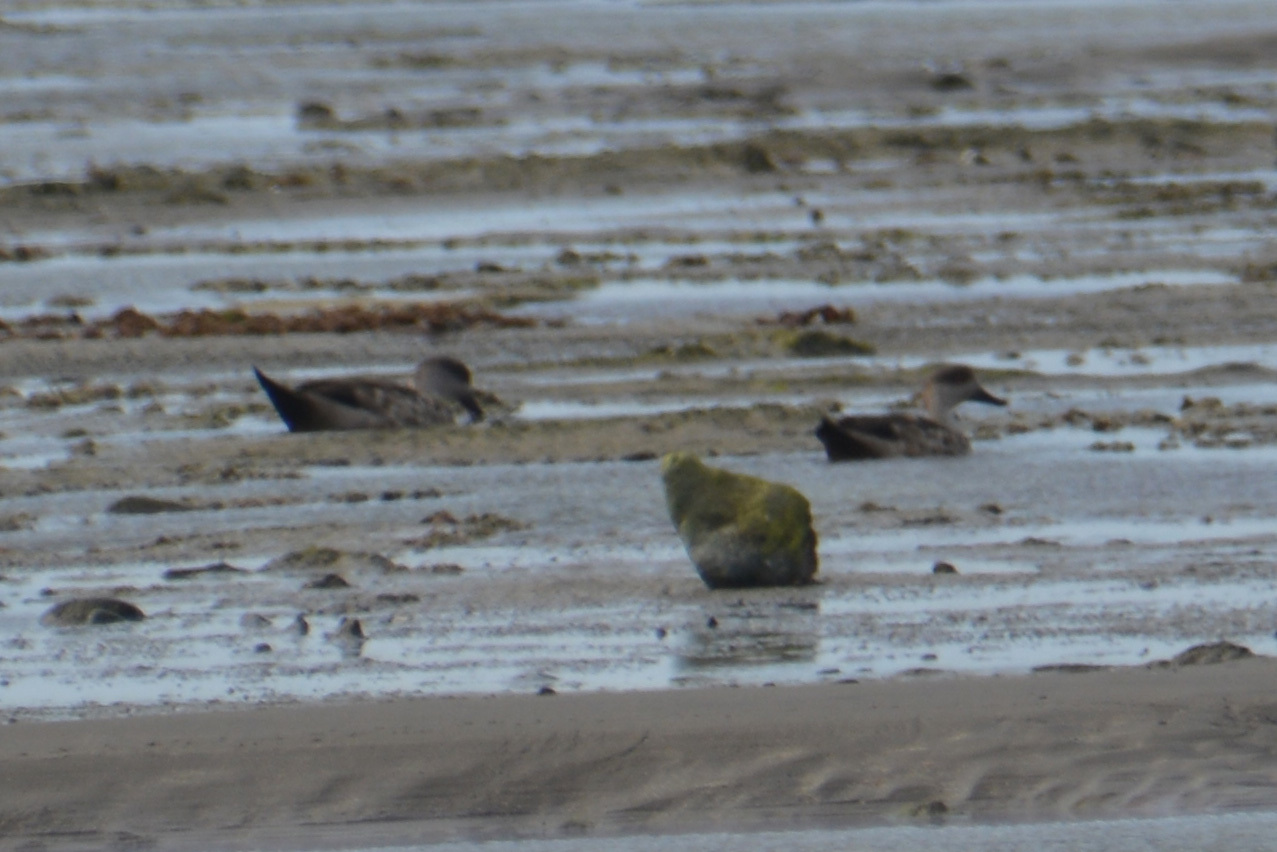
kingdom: Animalia
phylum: Chordata
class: Aves
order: Anseriformes
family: Anatidae
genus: Lophonetta
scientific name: Lophonetta specularioides
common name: Crested duck
